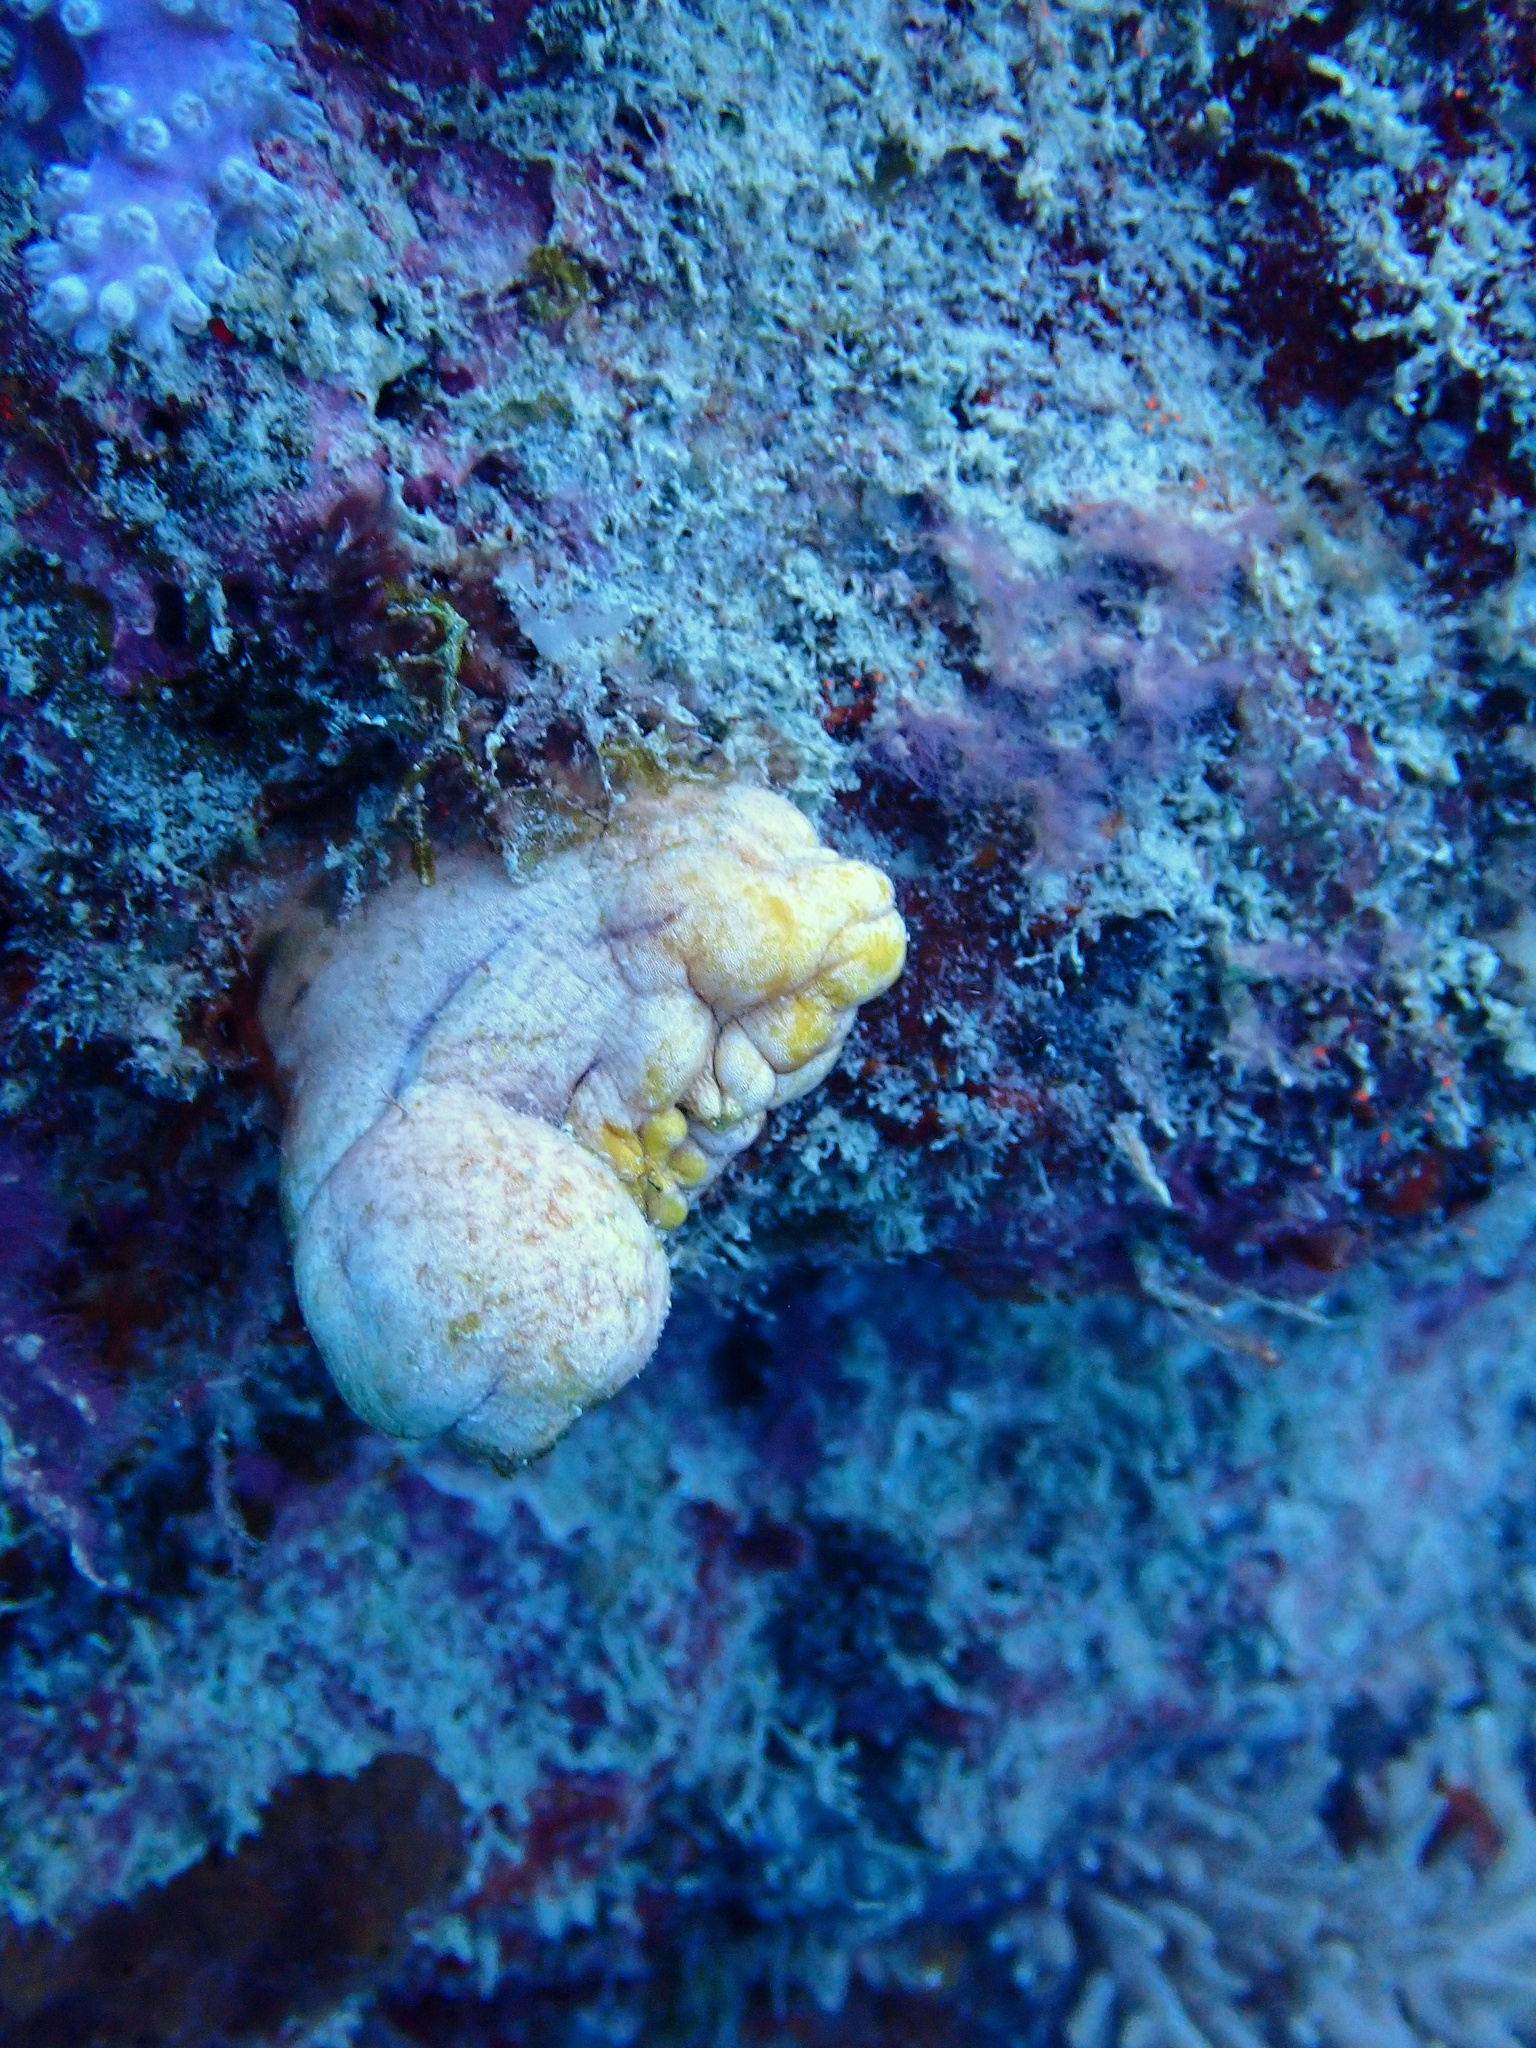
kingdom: Animalia
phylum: Chordata
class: Ascidiacea
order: Stolidobranchia
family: Styelidae
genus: Polycarpa
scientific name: Polycarpa aurata
